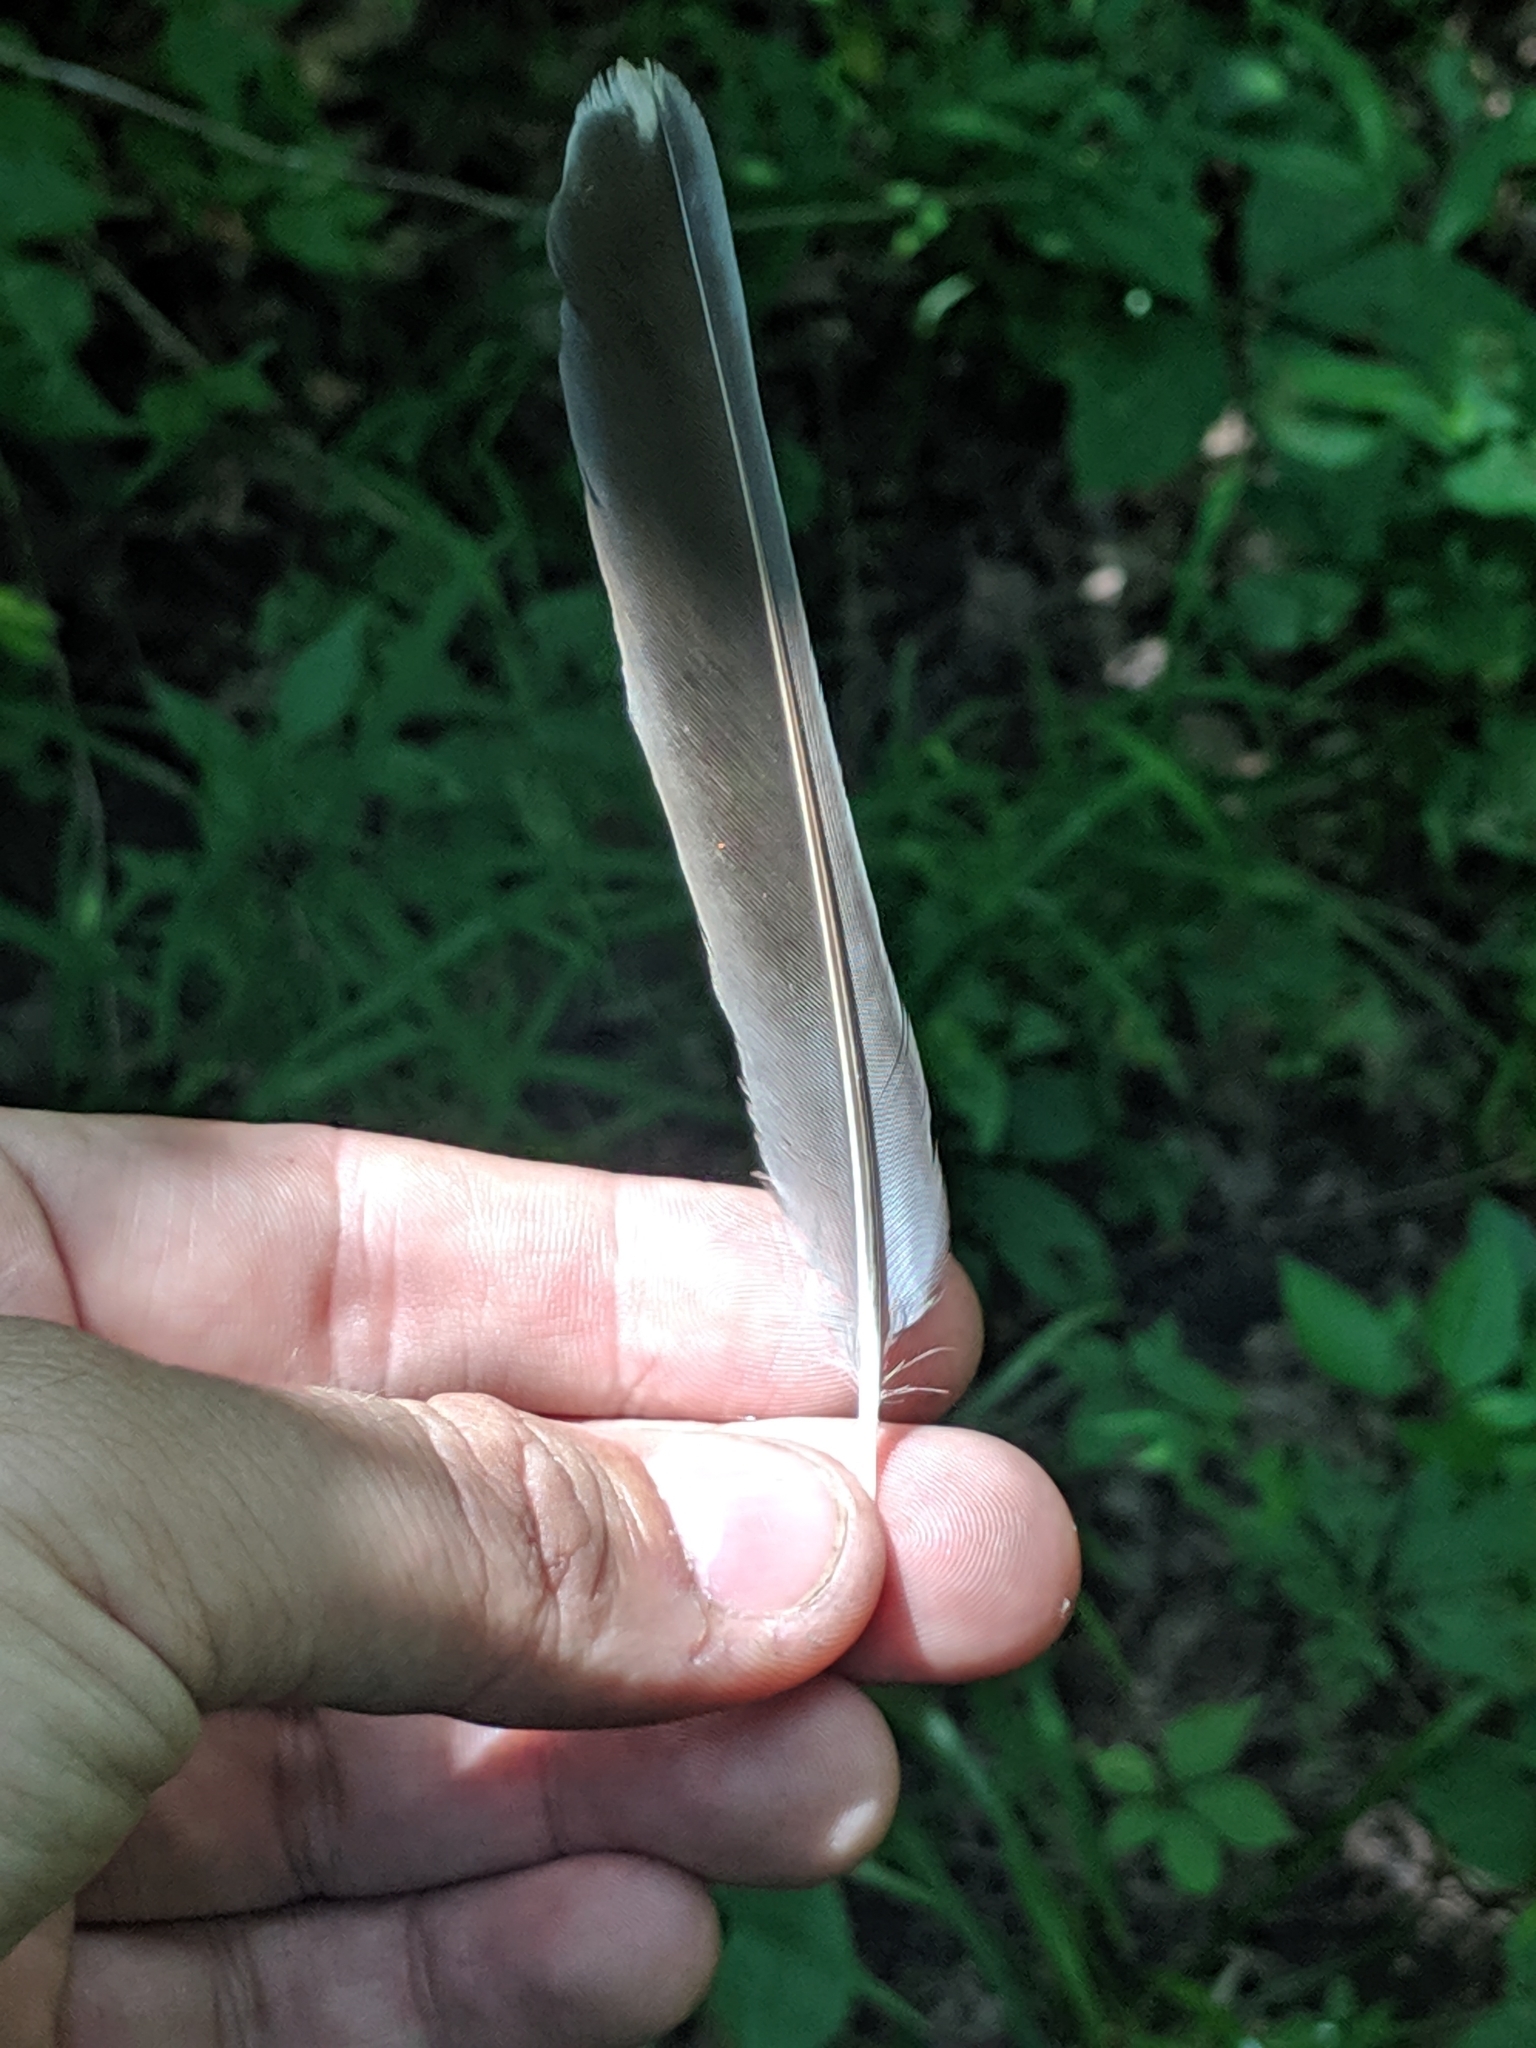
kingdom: Animalia
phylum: Chordata
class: Aves
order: Passeriformes
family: Turdidae
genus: Turdus
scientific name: Turdus migratorius
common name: American robin
